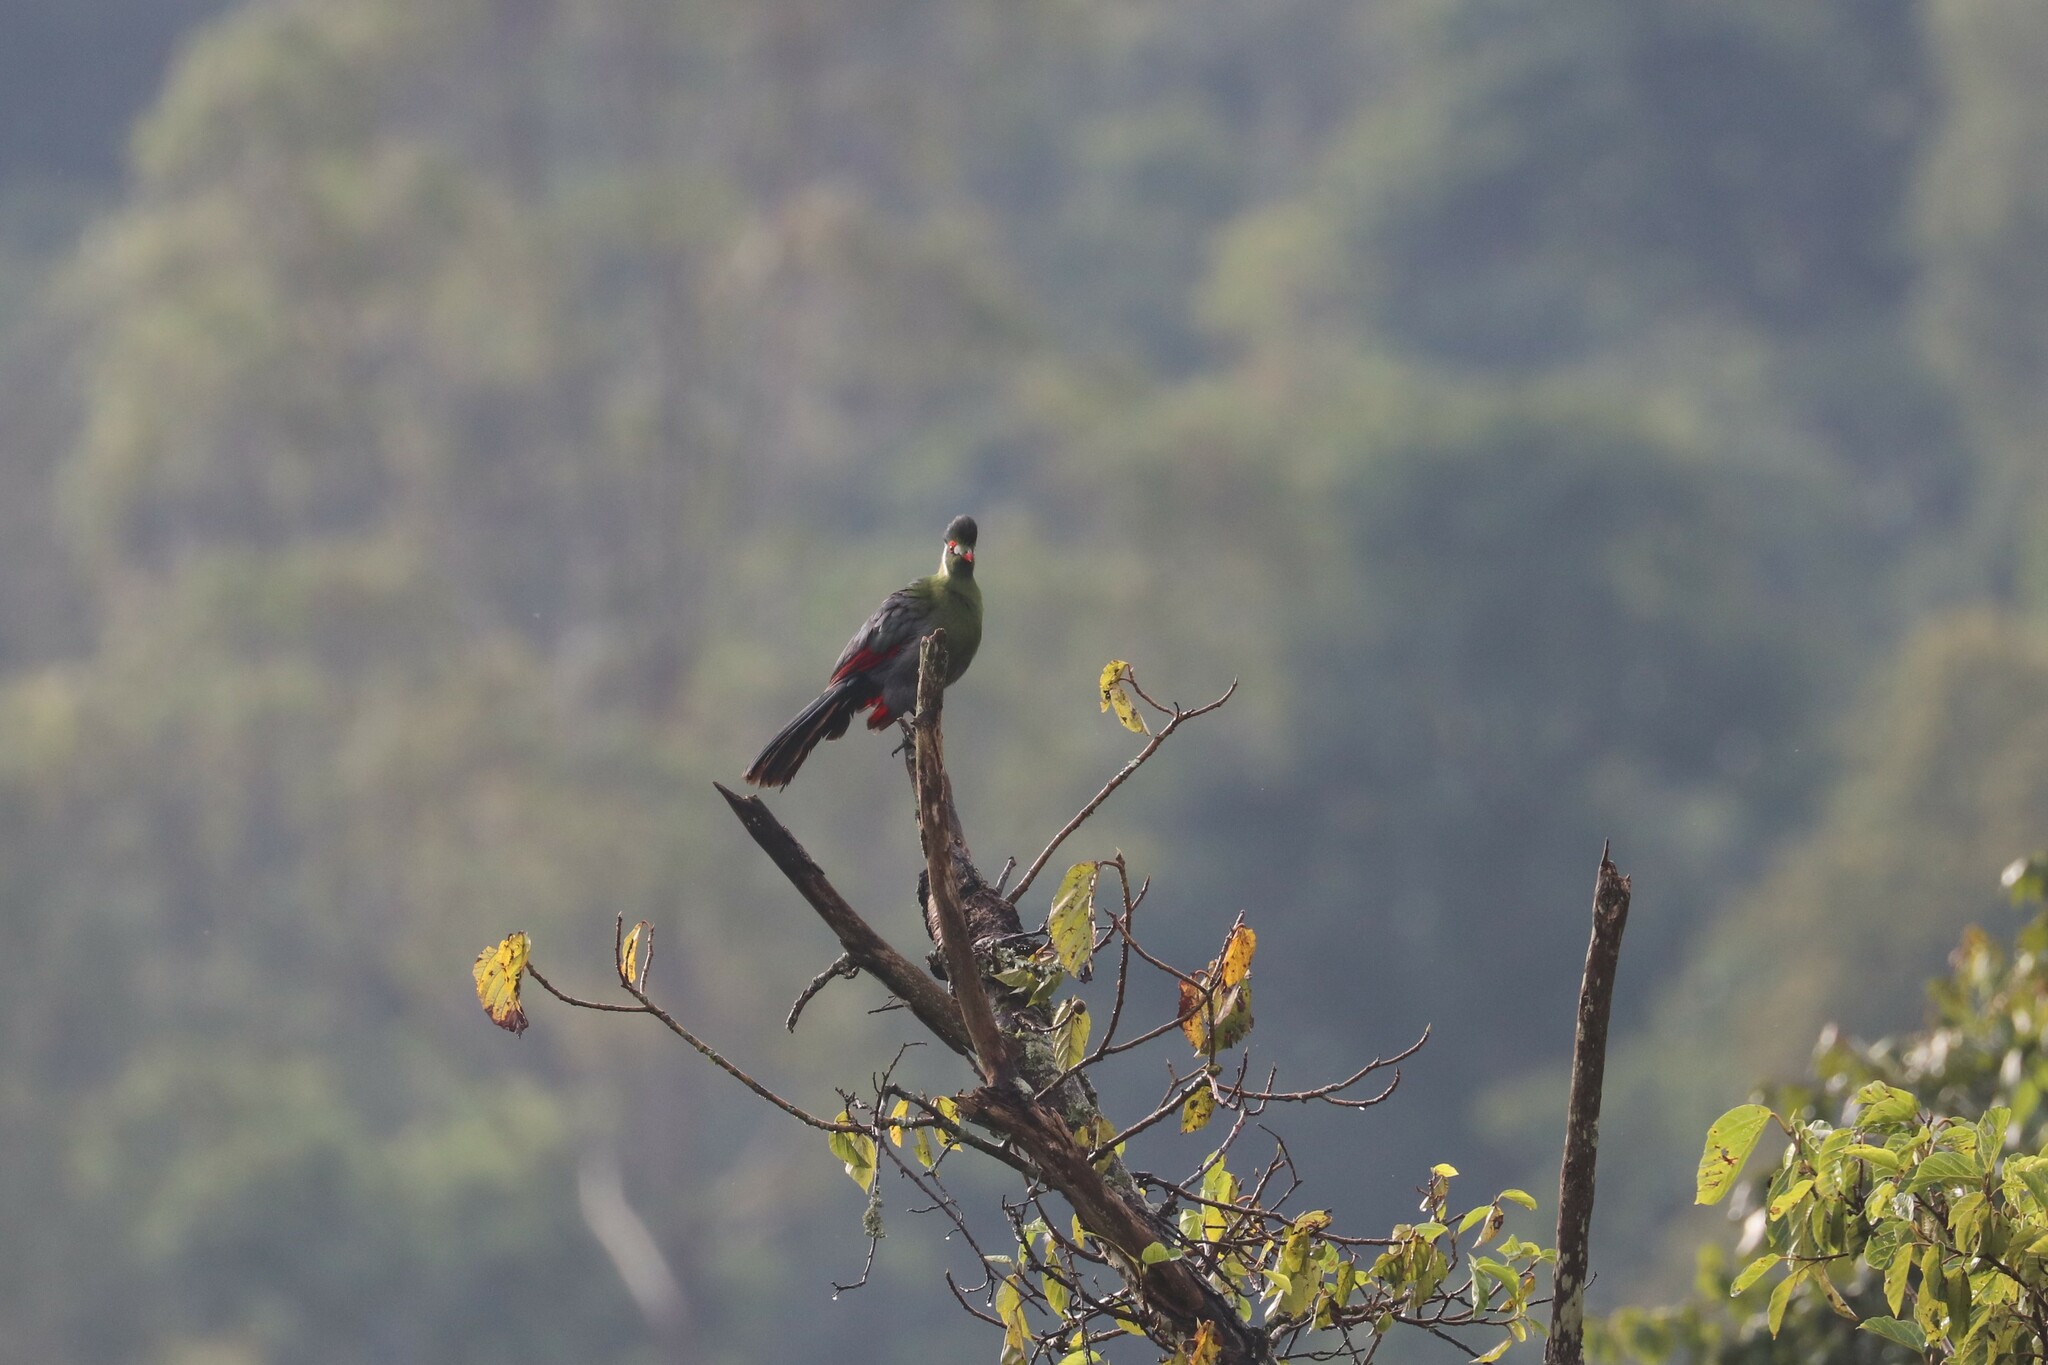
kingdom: Animalia
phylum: Chordata
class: Aves
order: Musophagiformes
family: Musophagidae
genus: Tauraco
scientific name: Tauraco leucotis
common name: White-cheeked turaco
